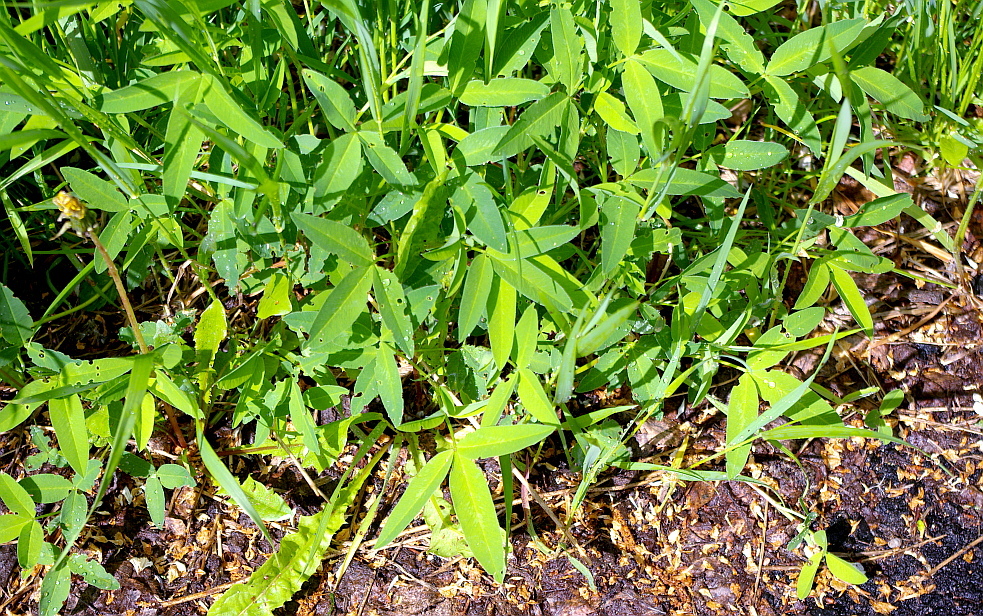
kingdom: Plantae
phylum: Tracheophyta
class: Magnoliopsida
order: Fabales
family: Fabaceae
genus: Trifolium
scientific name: Trifolium medium
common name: Zigzag clover
